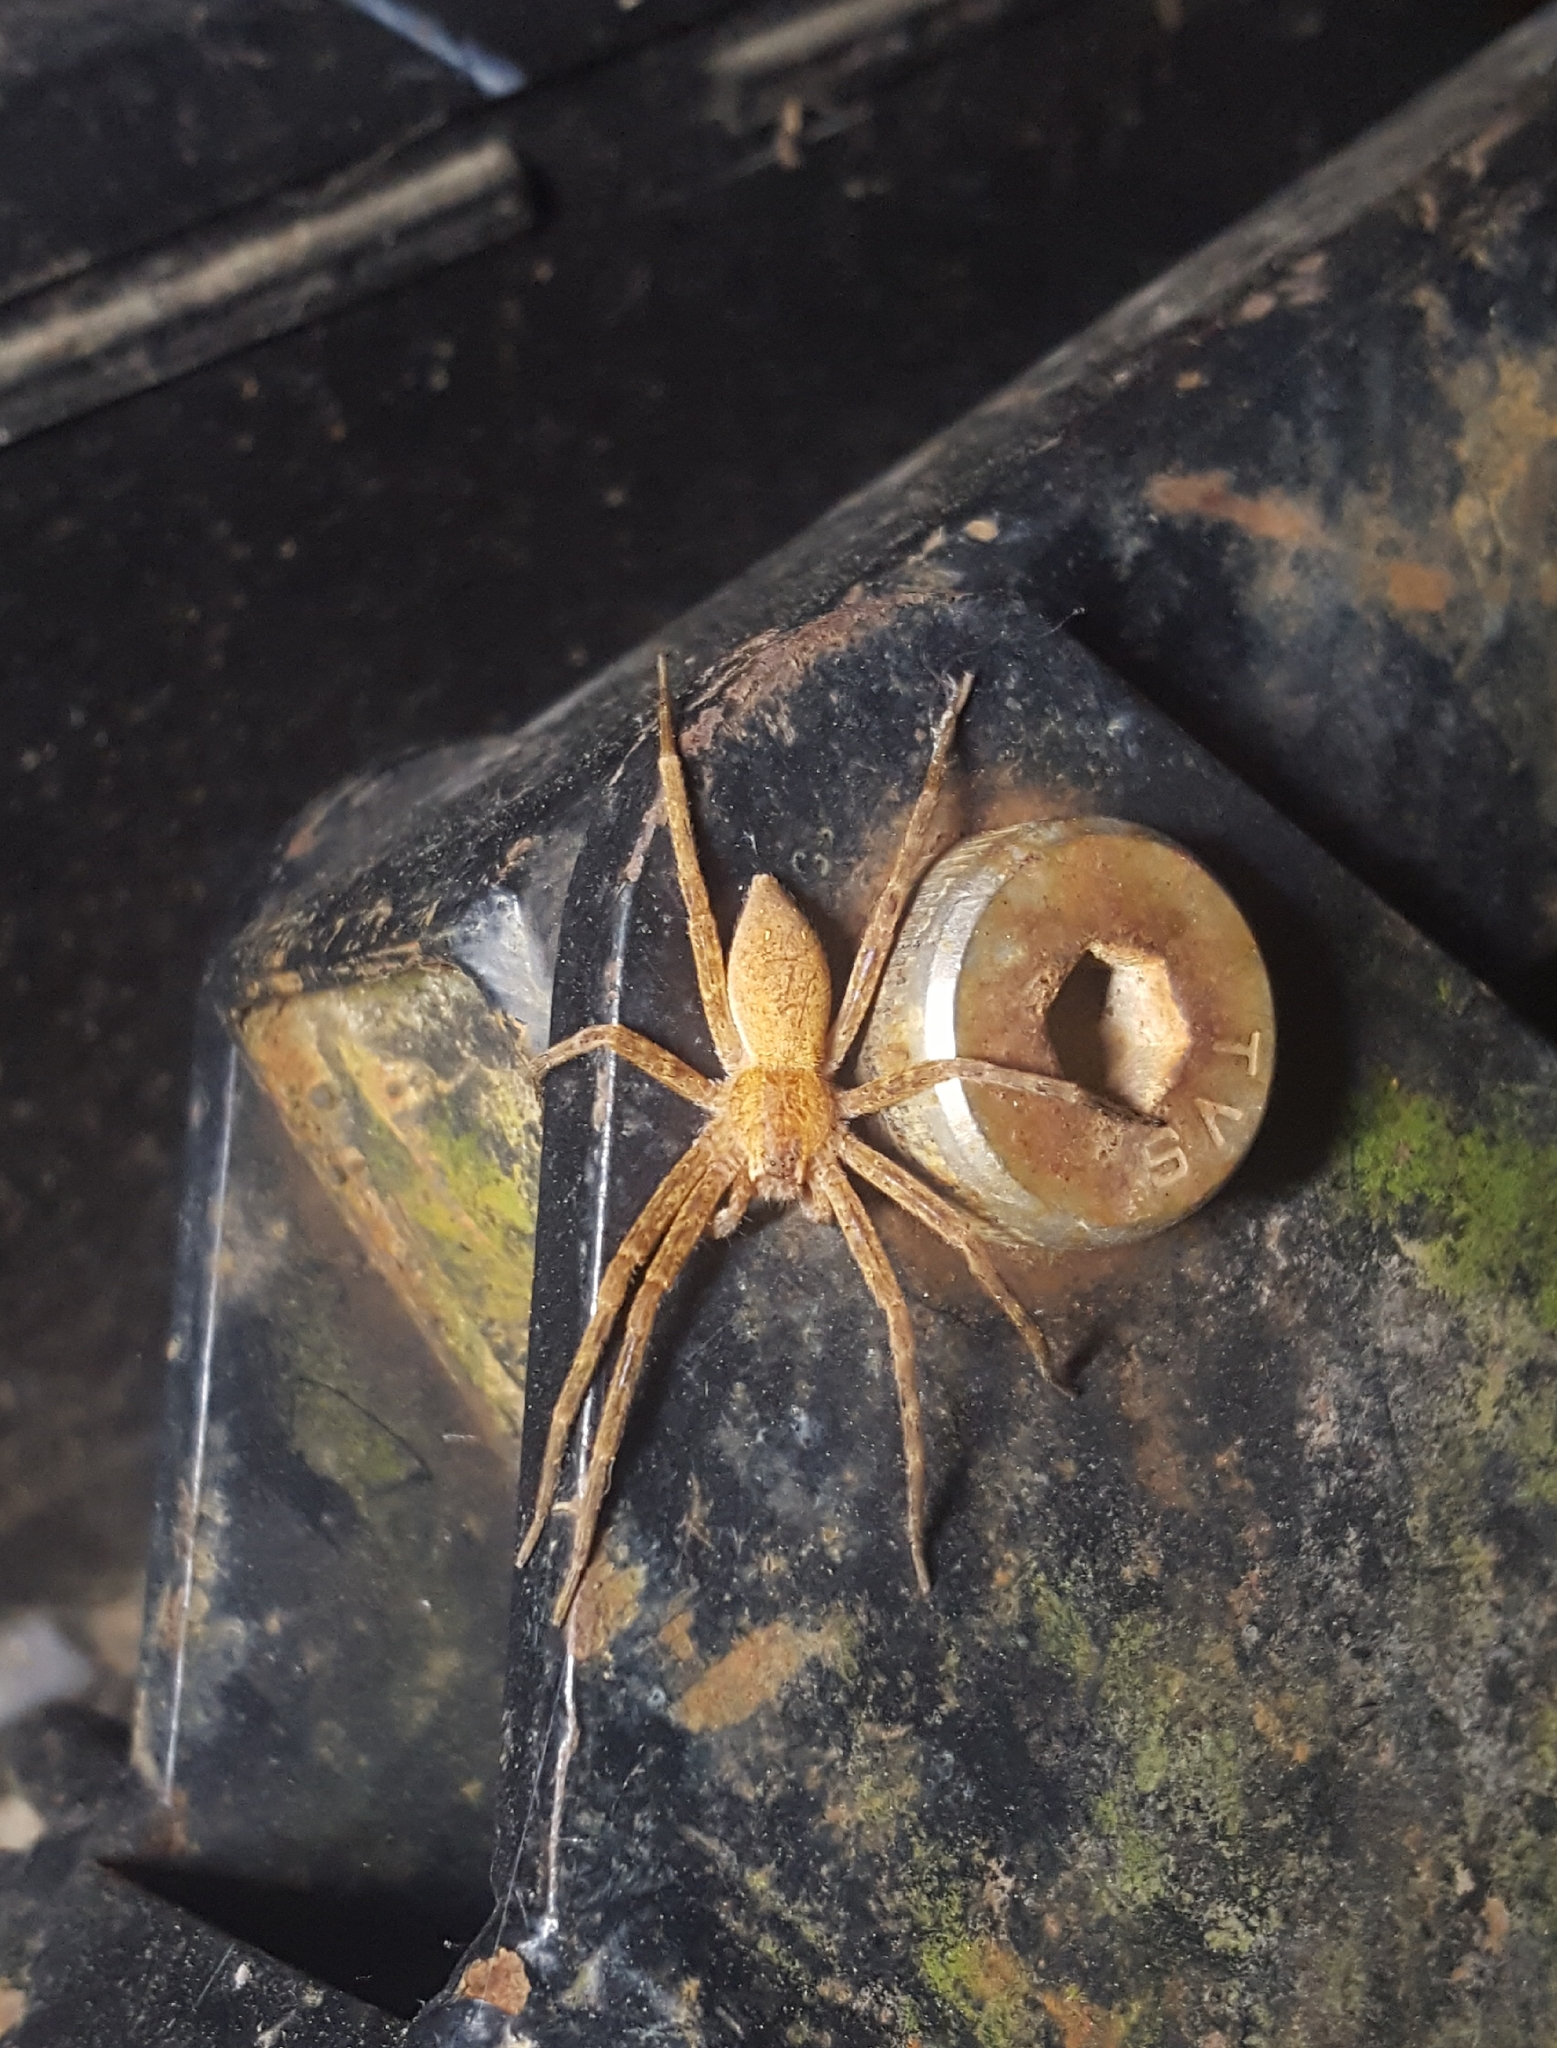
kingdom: Animalia
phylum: Arthropoda
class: Arachnida
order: Araneae
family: Pisauridae
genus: Pisaurina
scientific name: Pisaurina mira
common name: American nursery web spider
